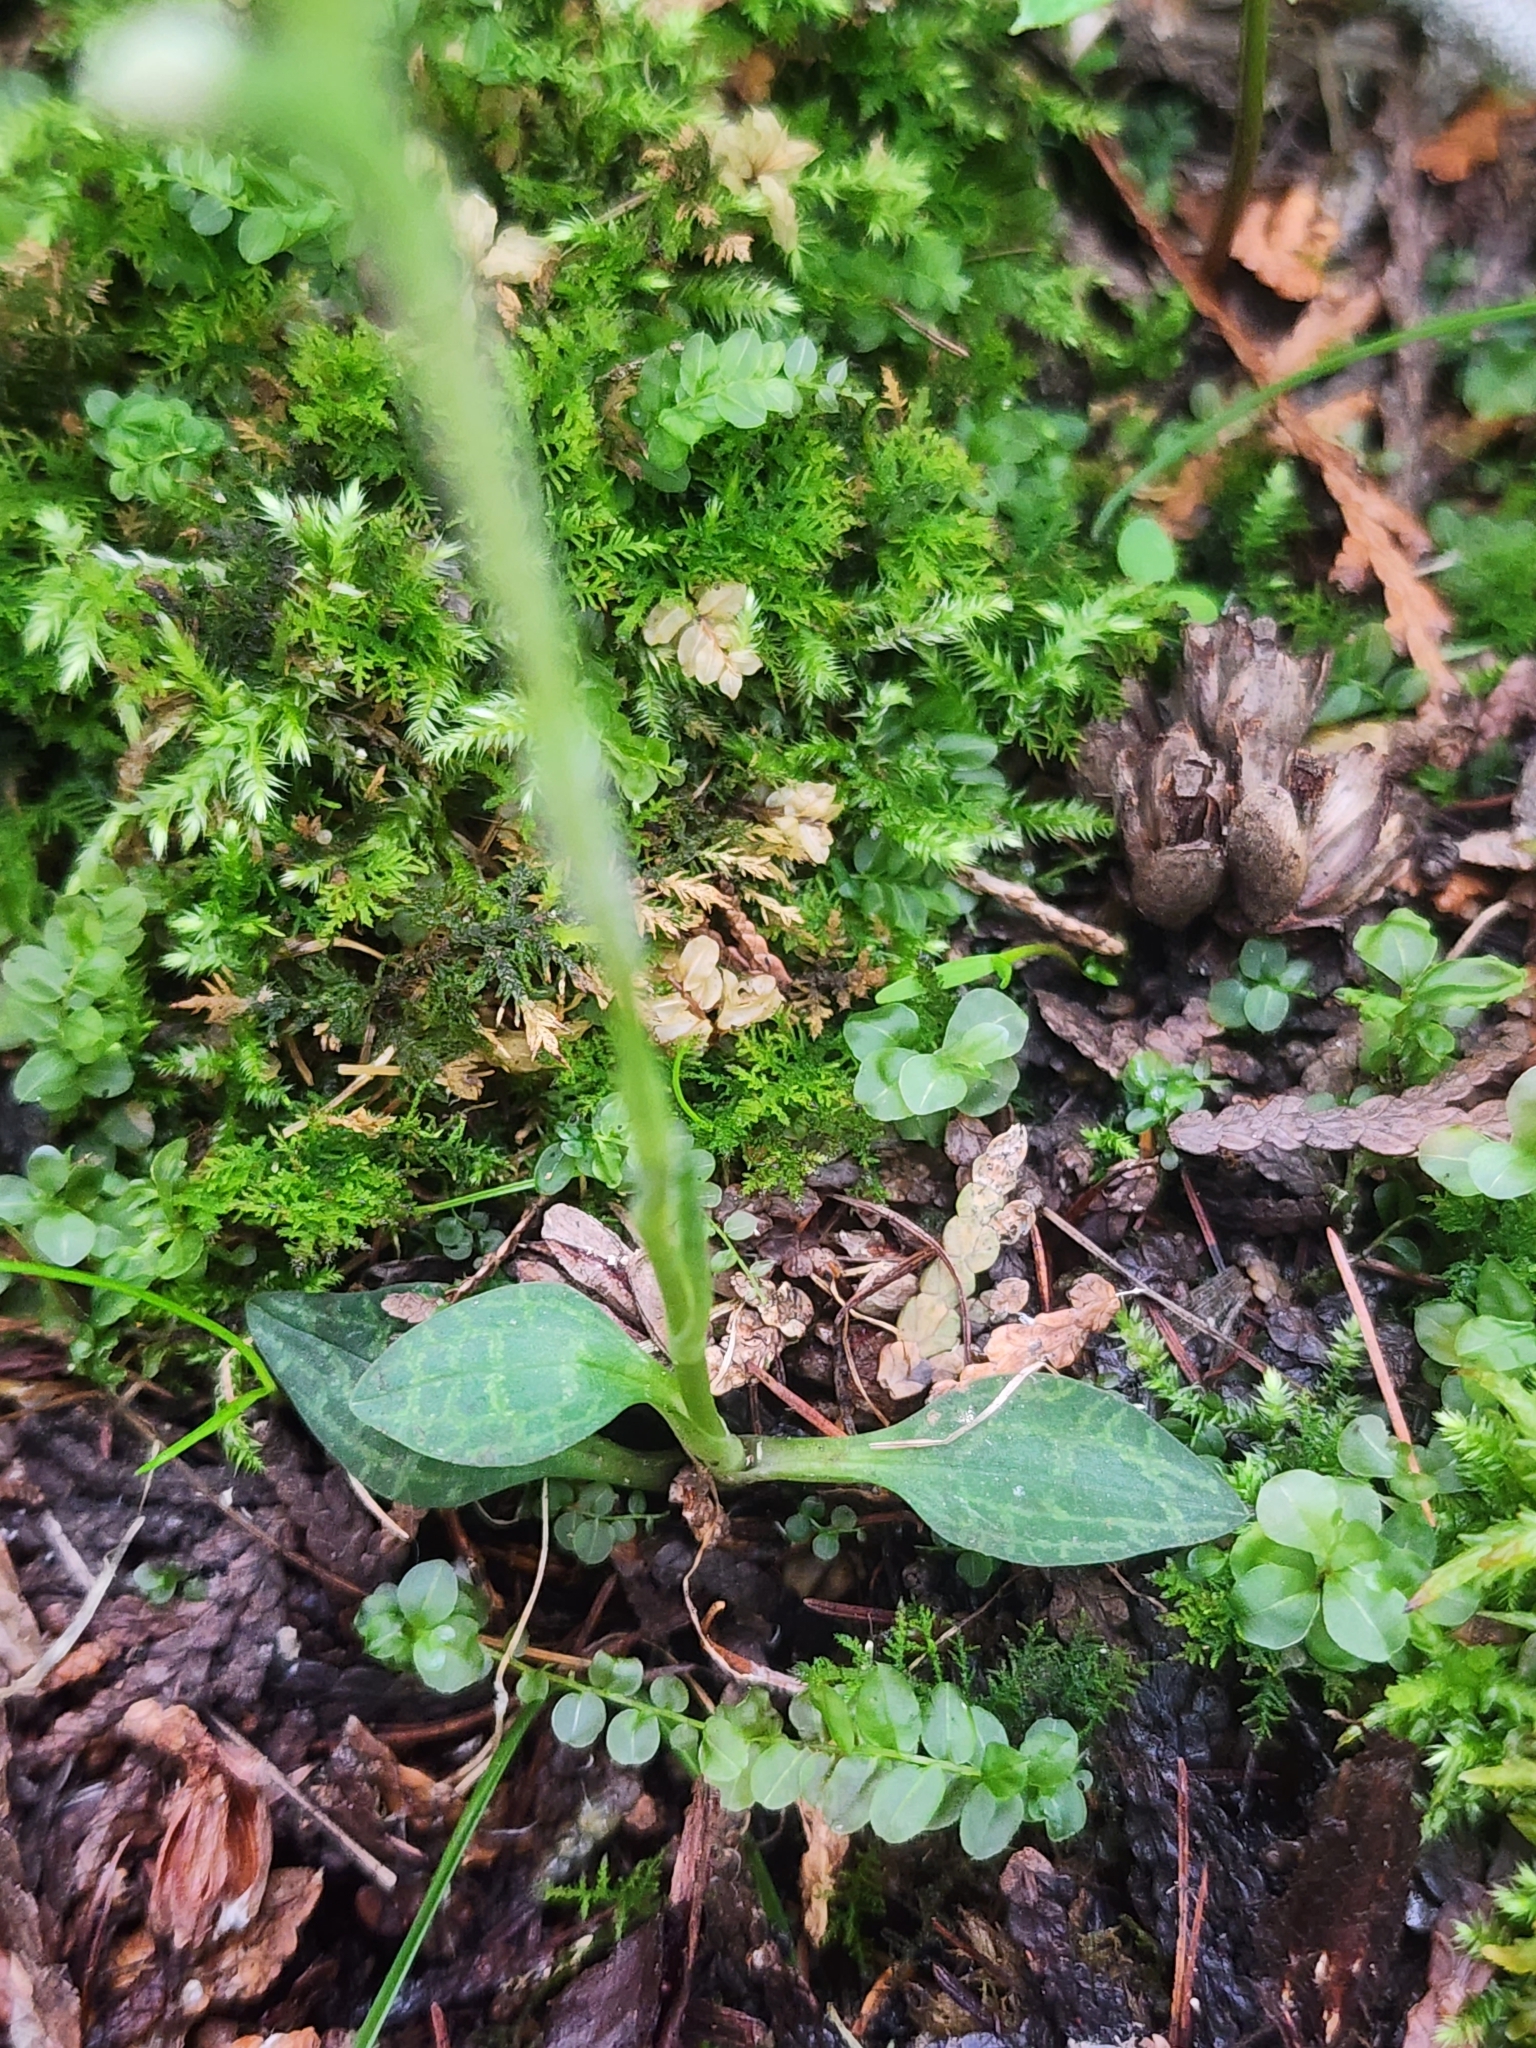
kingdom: Plantae
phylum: Tracheophyta
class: Liliopsida
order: Asparagales
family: Orchidaceae
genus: Goodyera
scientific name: Goodyera repens
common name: Creeping lady's-tresses
